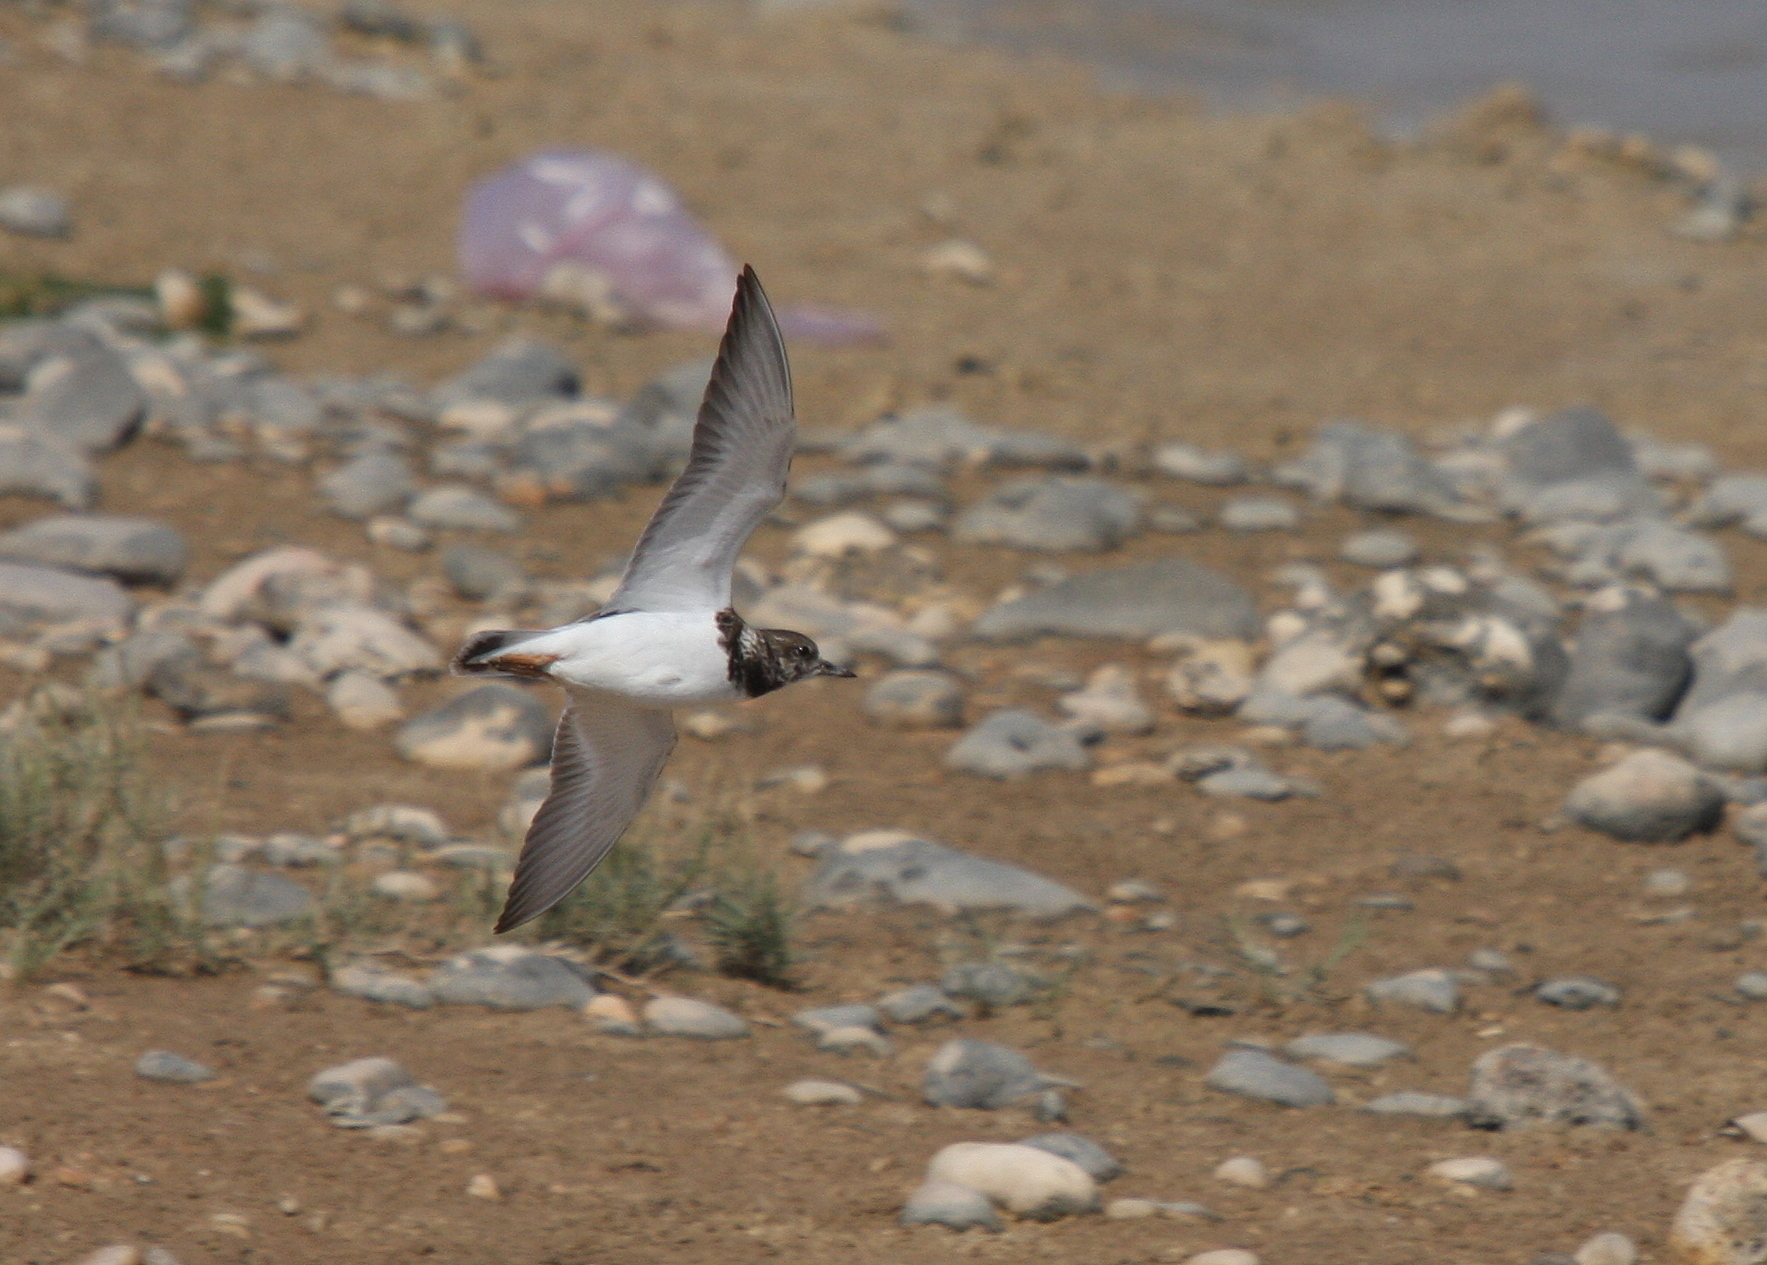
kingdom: Animalia
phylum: Chordata
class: Aves
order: Charadriiformes
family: Scolopacidae
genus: Arenaria
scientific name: Arenaria interpres
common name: Ruddy turnstone
